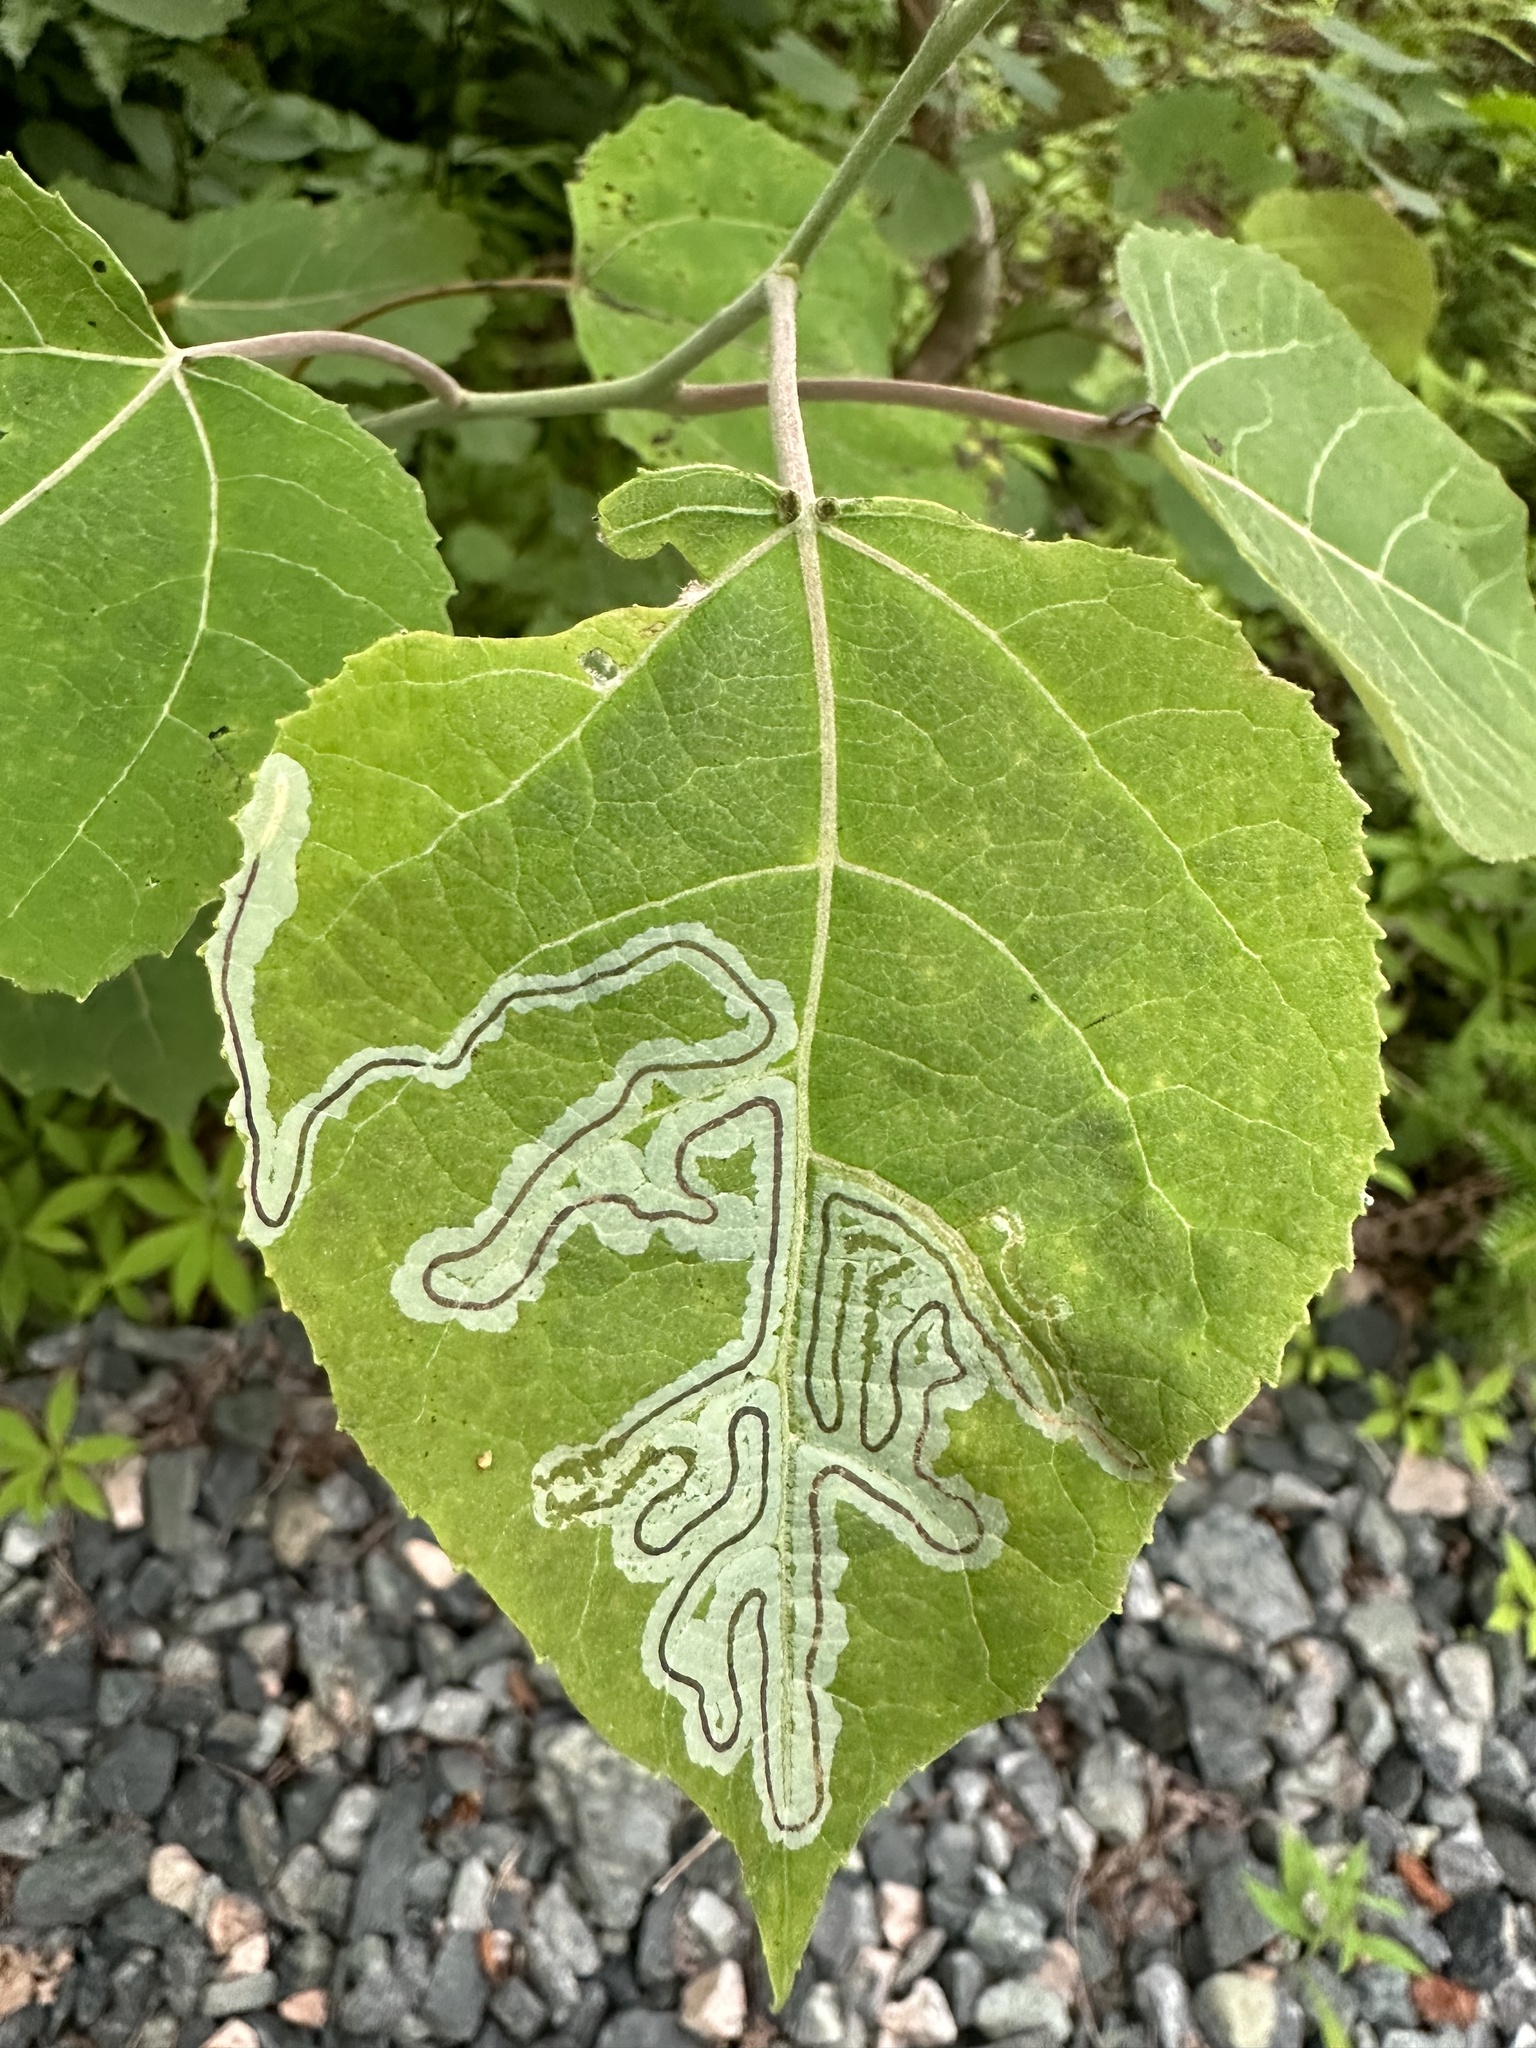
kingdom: Animalia
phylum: Arthropoda
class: Insecta
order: Lepidoptera
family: Gracillariidae
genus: Phyllocnistis
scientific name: Phyllocnistis populiella
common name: Aspen serpentine leafminer moth
